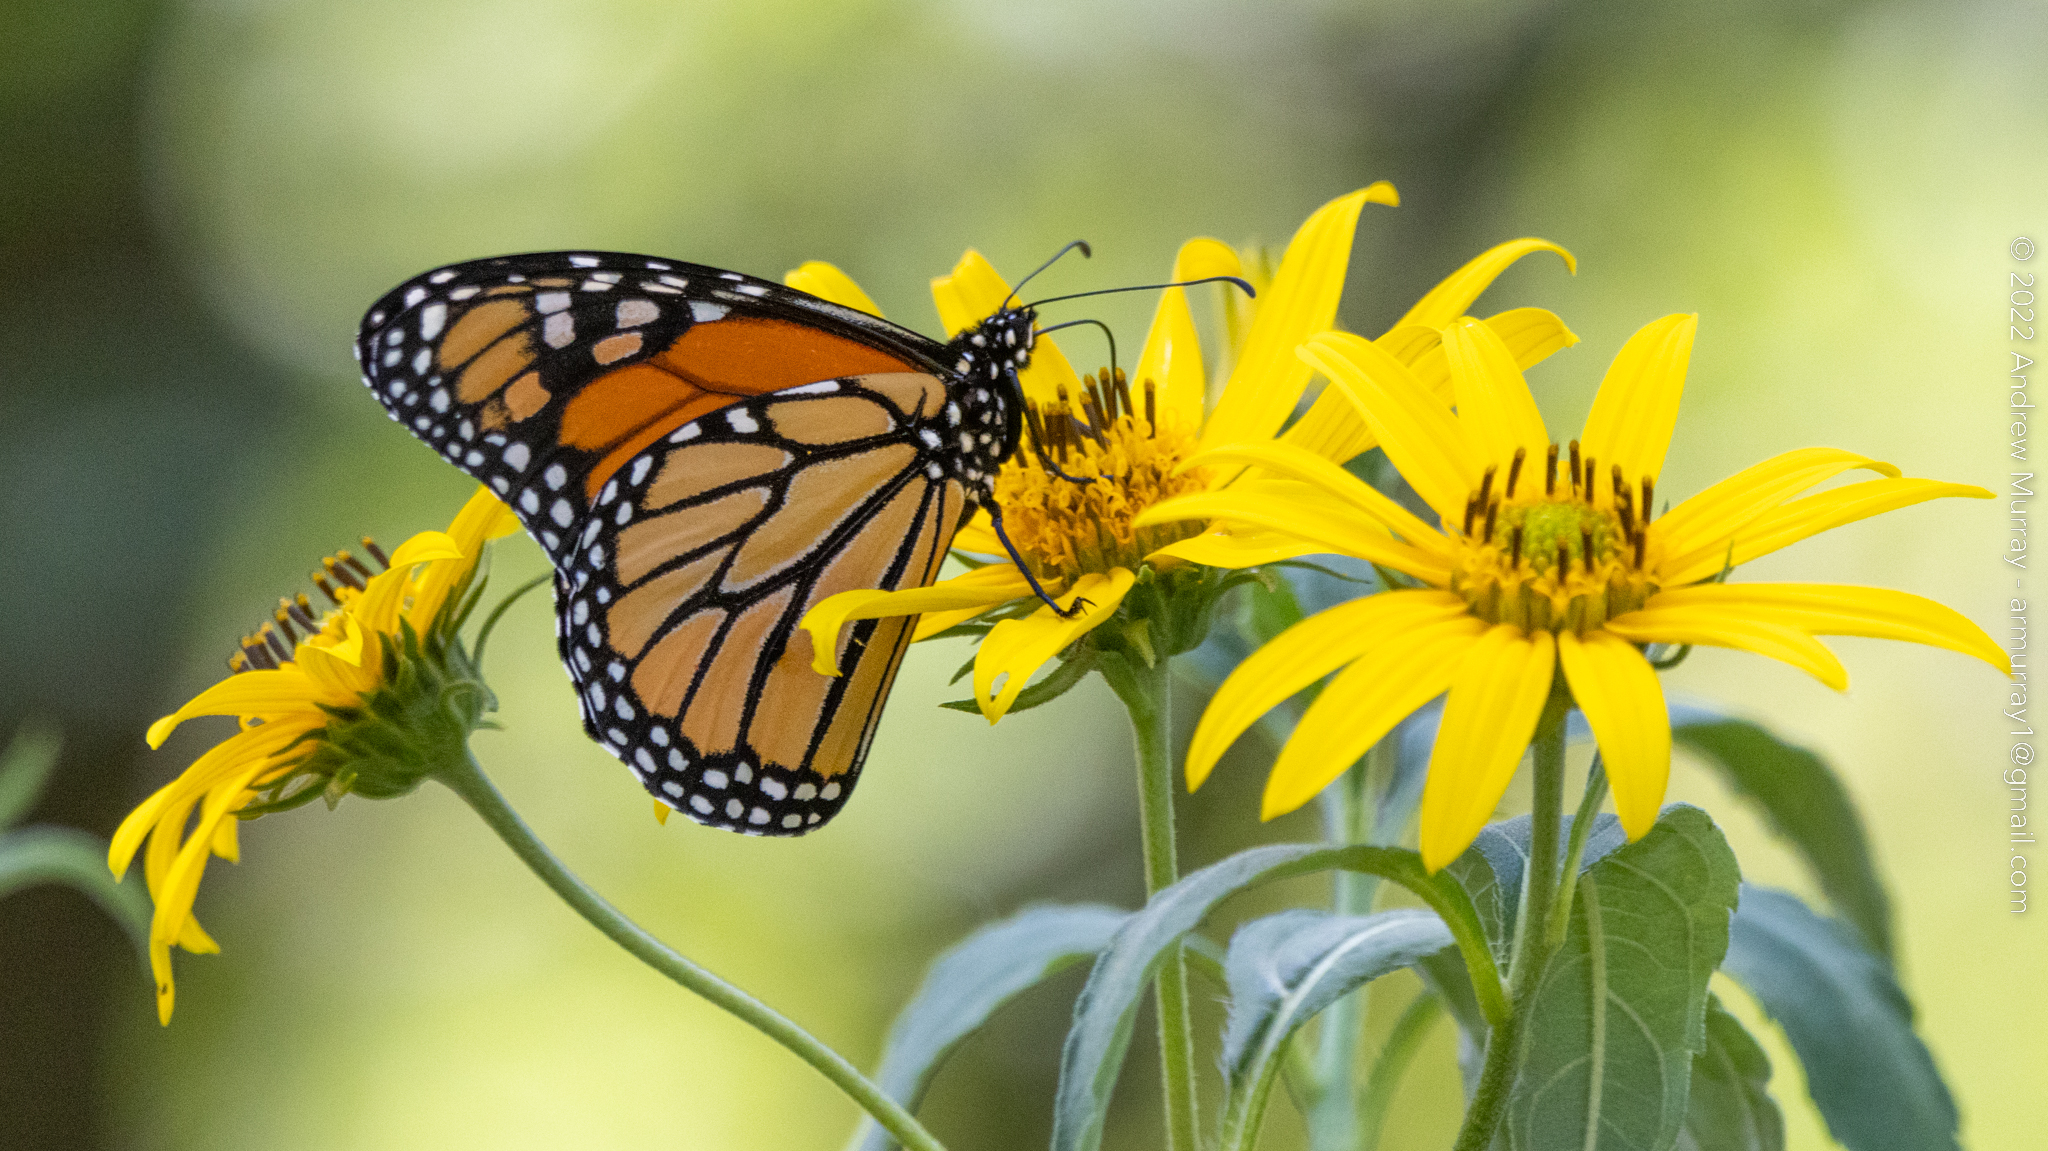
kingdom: Animalia
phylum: Arthropoda
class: Insecta
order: Lepidoptera
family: Nymphalidae
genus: Danaus
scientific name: Danaus plexippus
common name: Monarch
